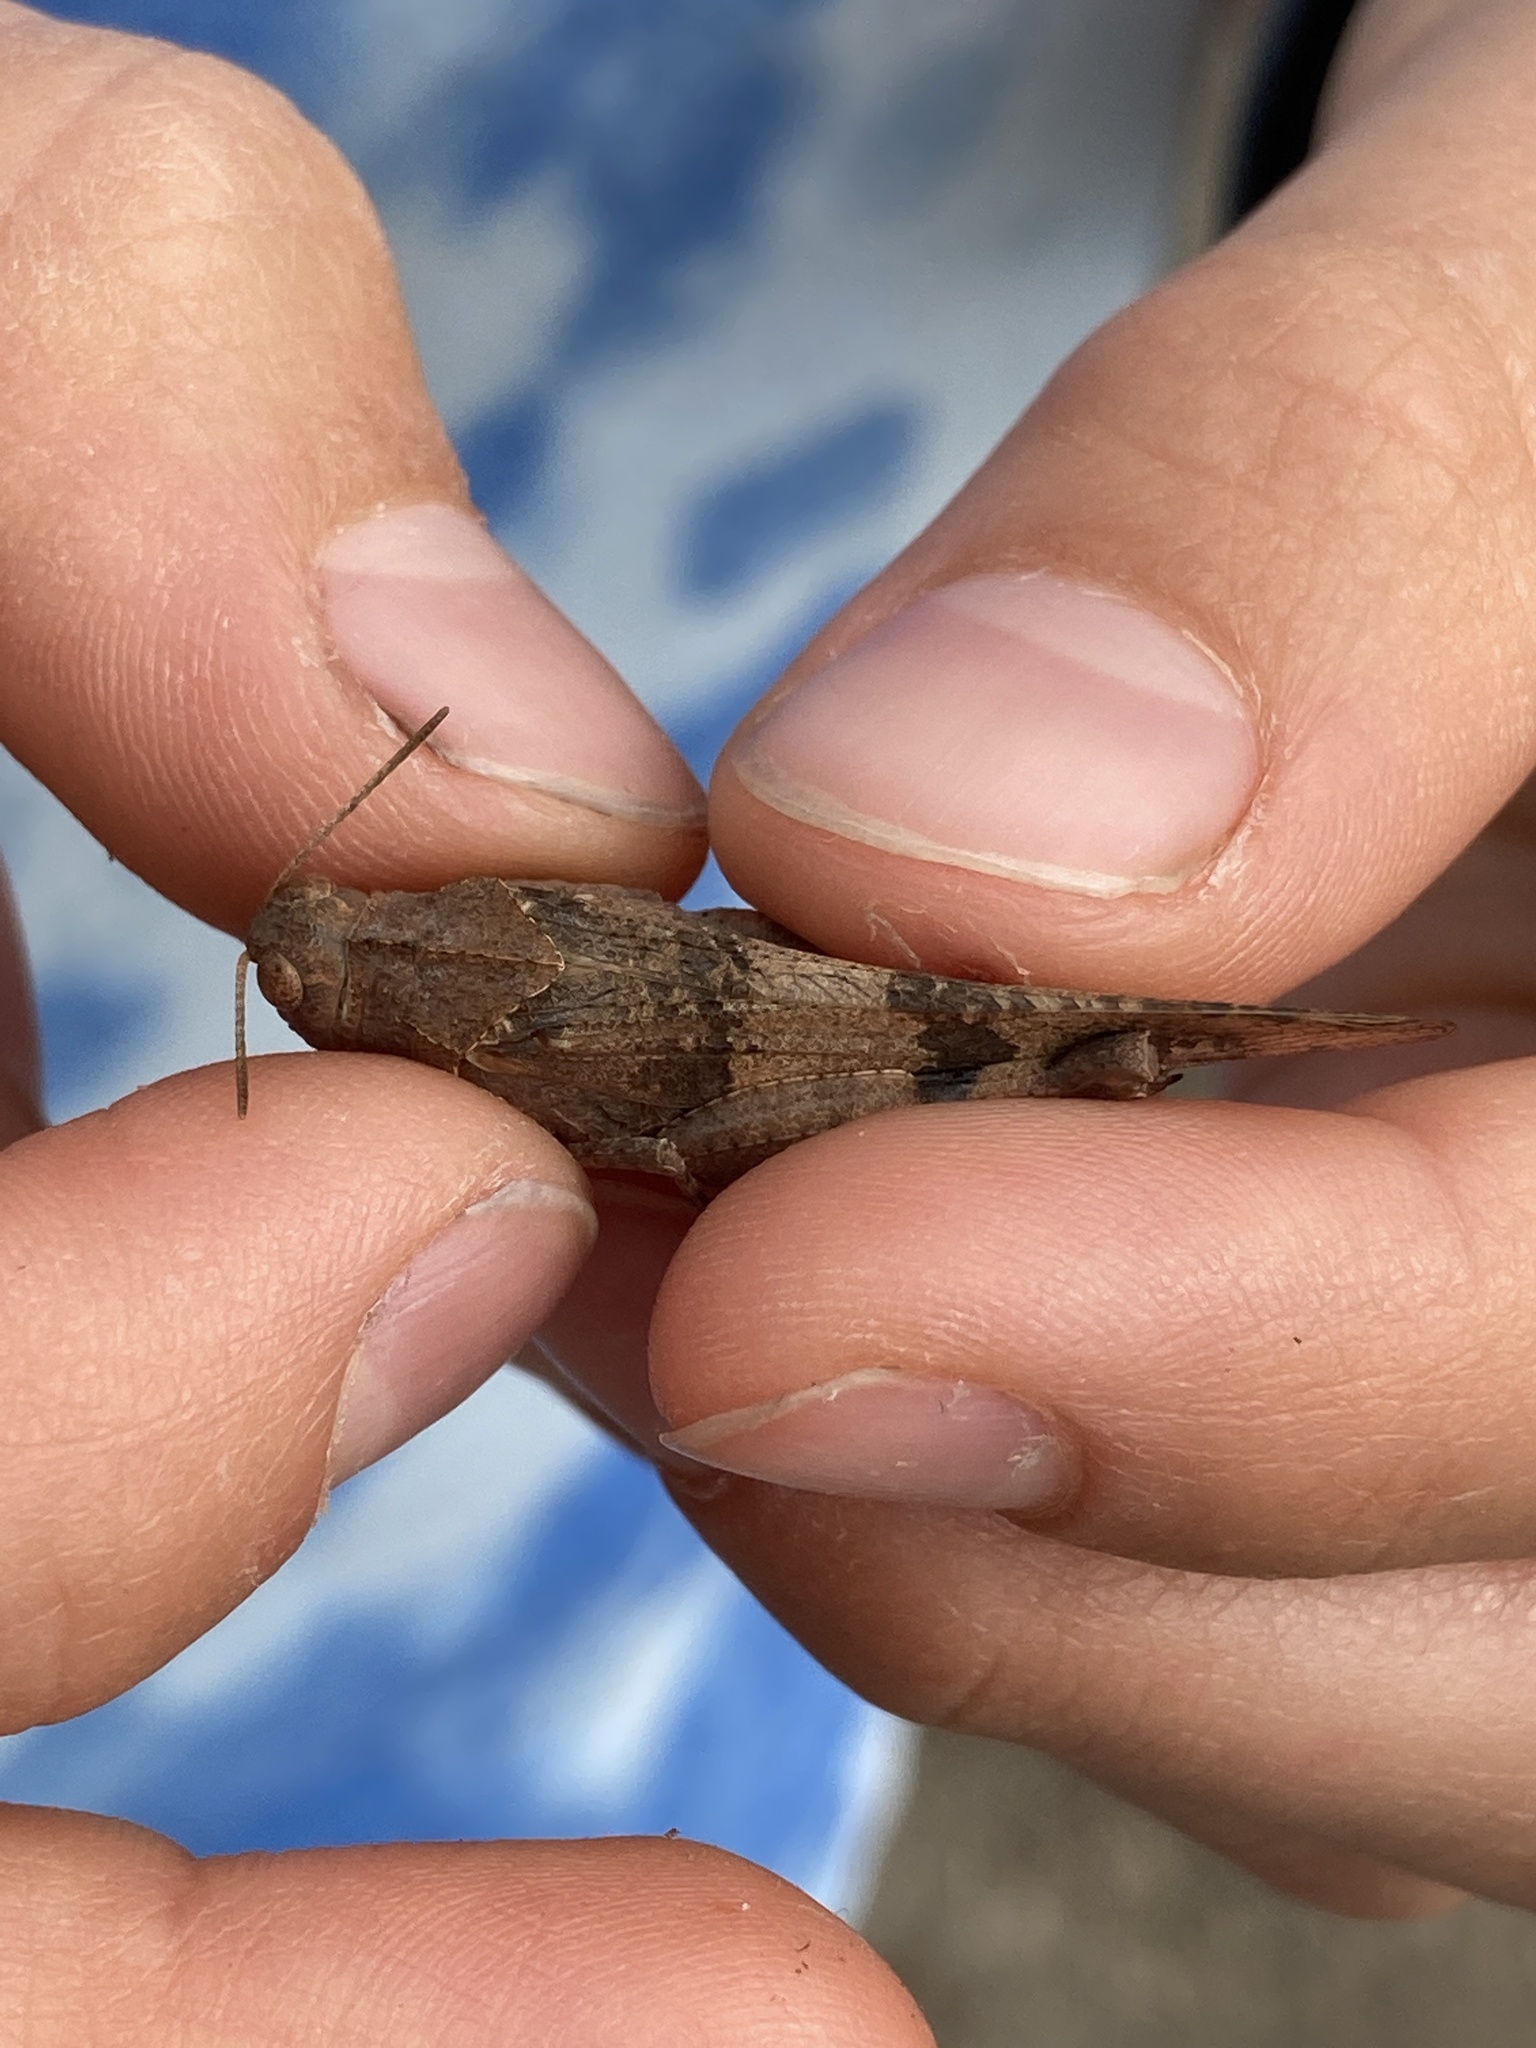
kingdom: Animalia
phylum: Arthropoda
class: Insecta
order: Orthoptera
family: Acrididae
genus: Oedipoda
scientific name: Oedipoda caerulescens
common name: Blue-winged grasshopper
